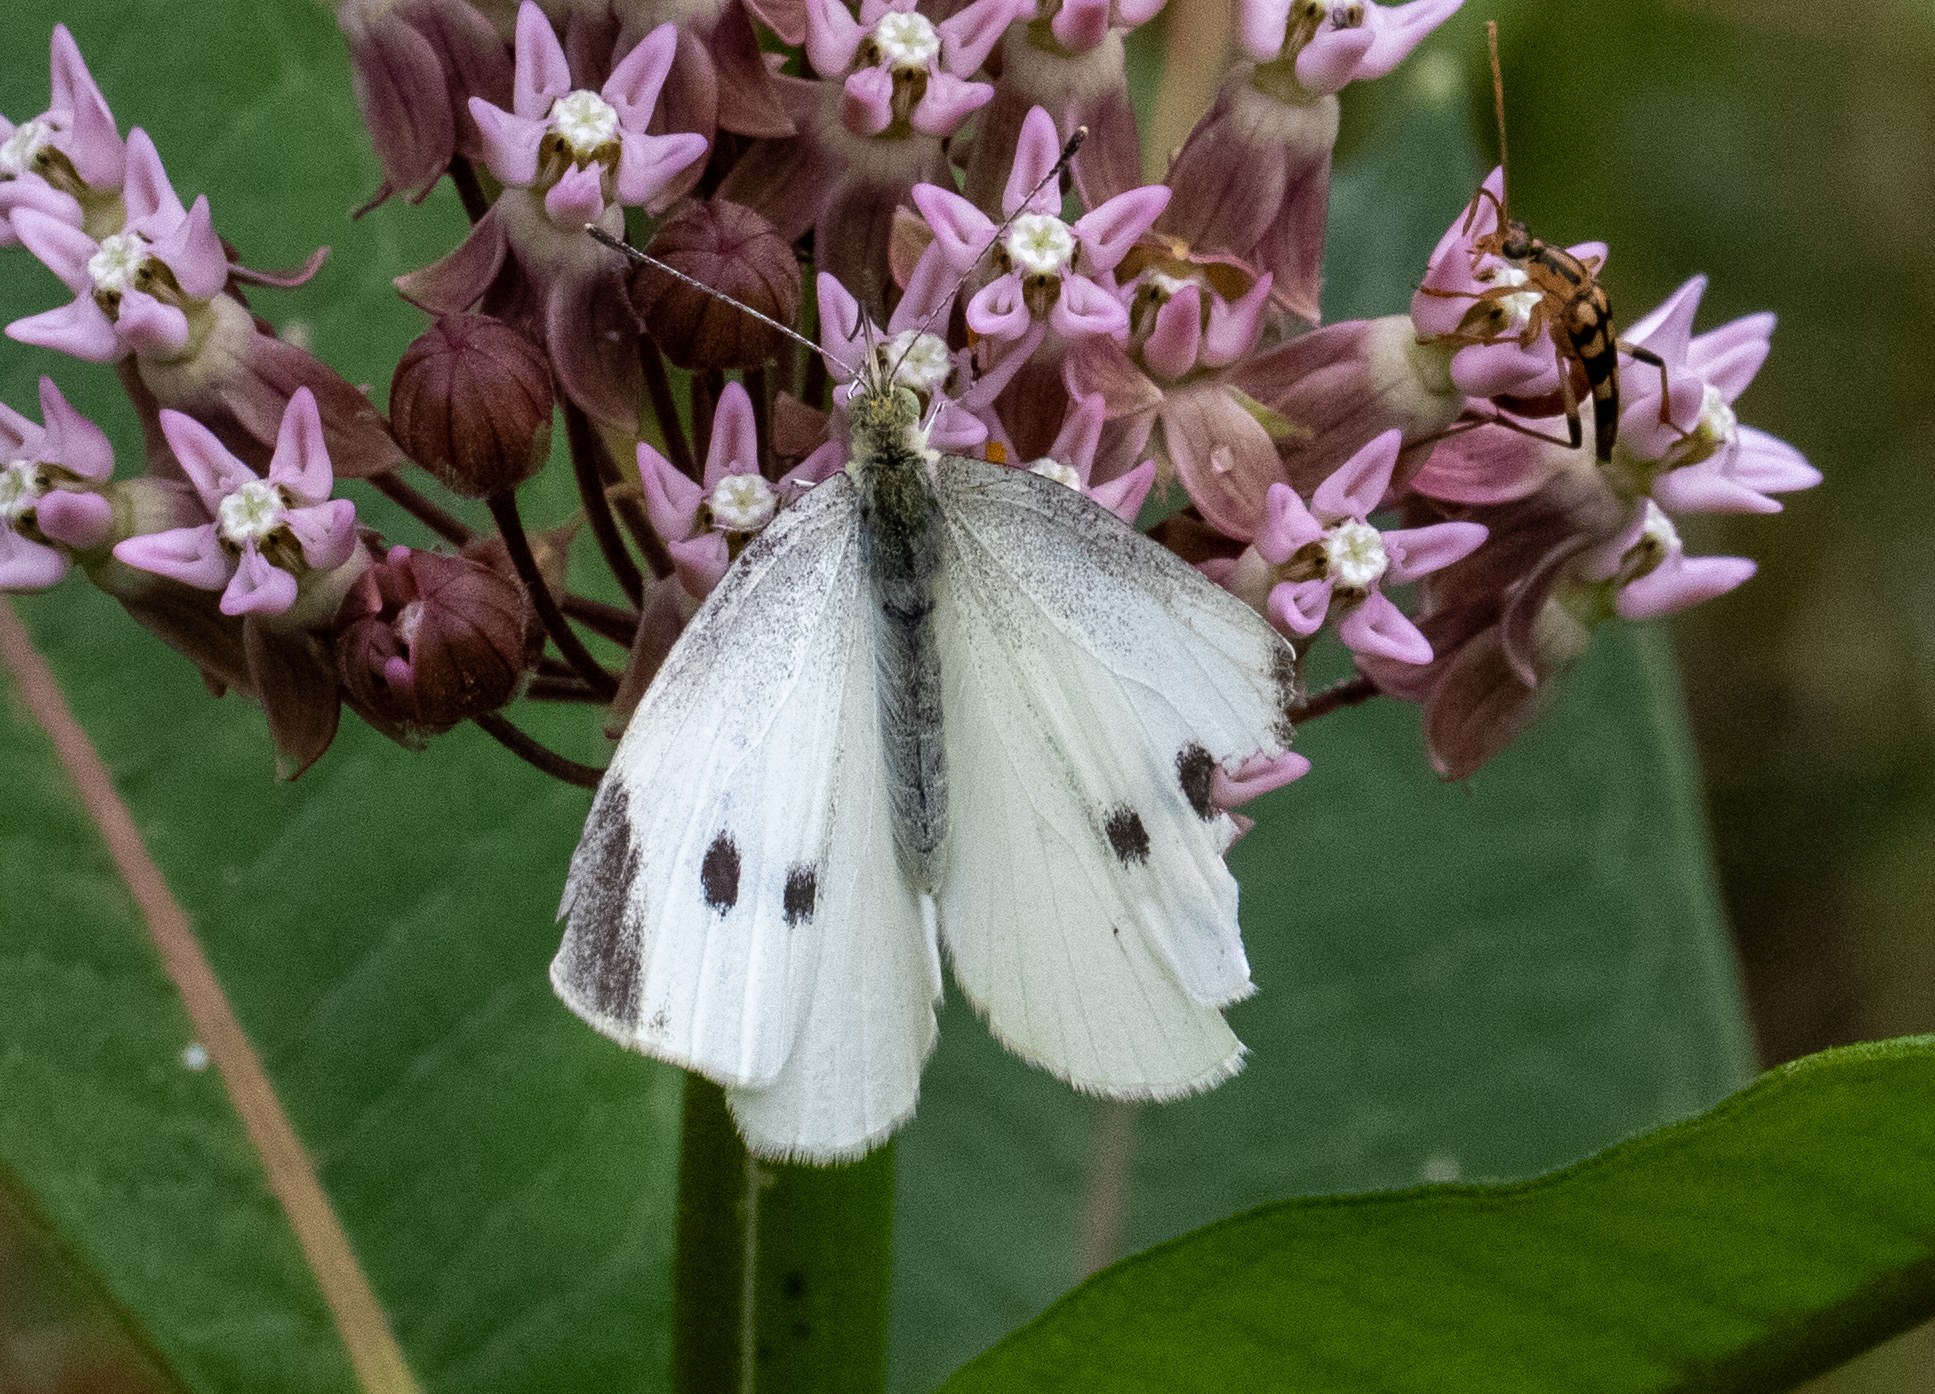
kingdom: Animalia
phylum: Arthropoda
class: Insecta
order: Lepidoptera
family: Pieridae
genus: Pieris
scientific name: Pieris rapae
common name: Small white
